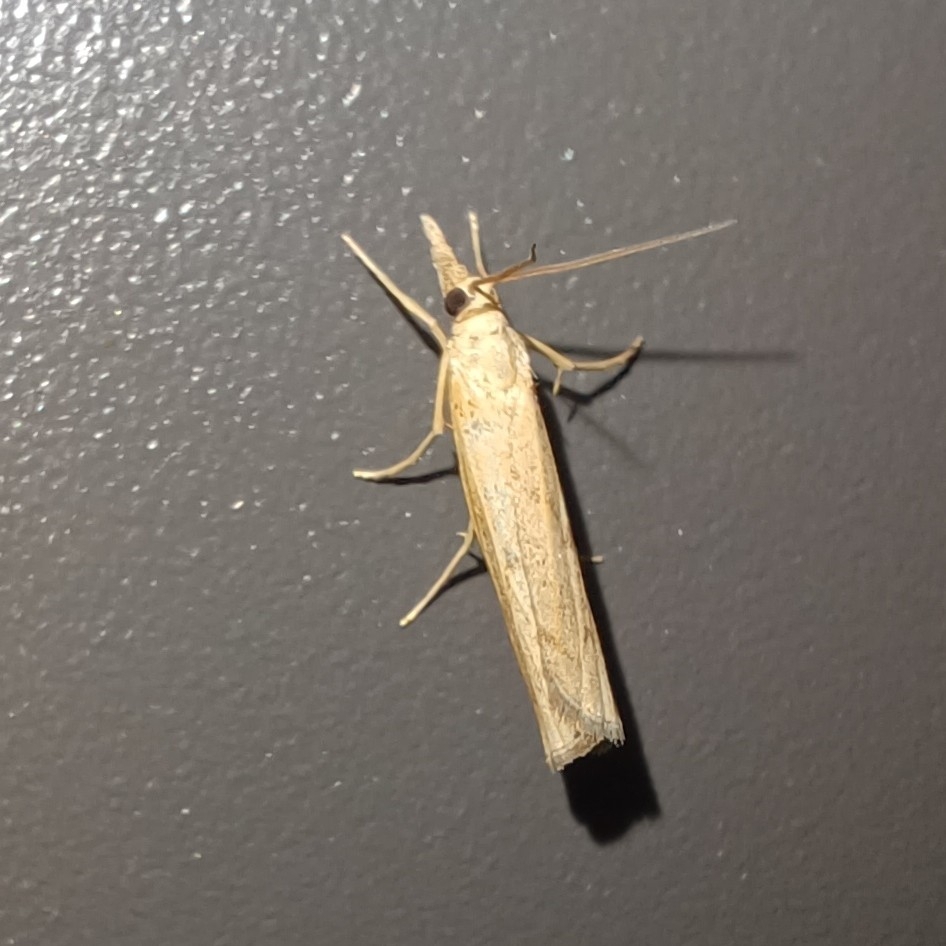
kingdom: Animalia
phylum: Arthropoda
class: Insecta
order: Lepidoptera
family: Crambidae
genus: Pediasia
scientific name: Pediasia contaminella
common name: Waste grass-veneer
